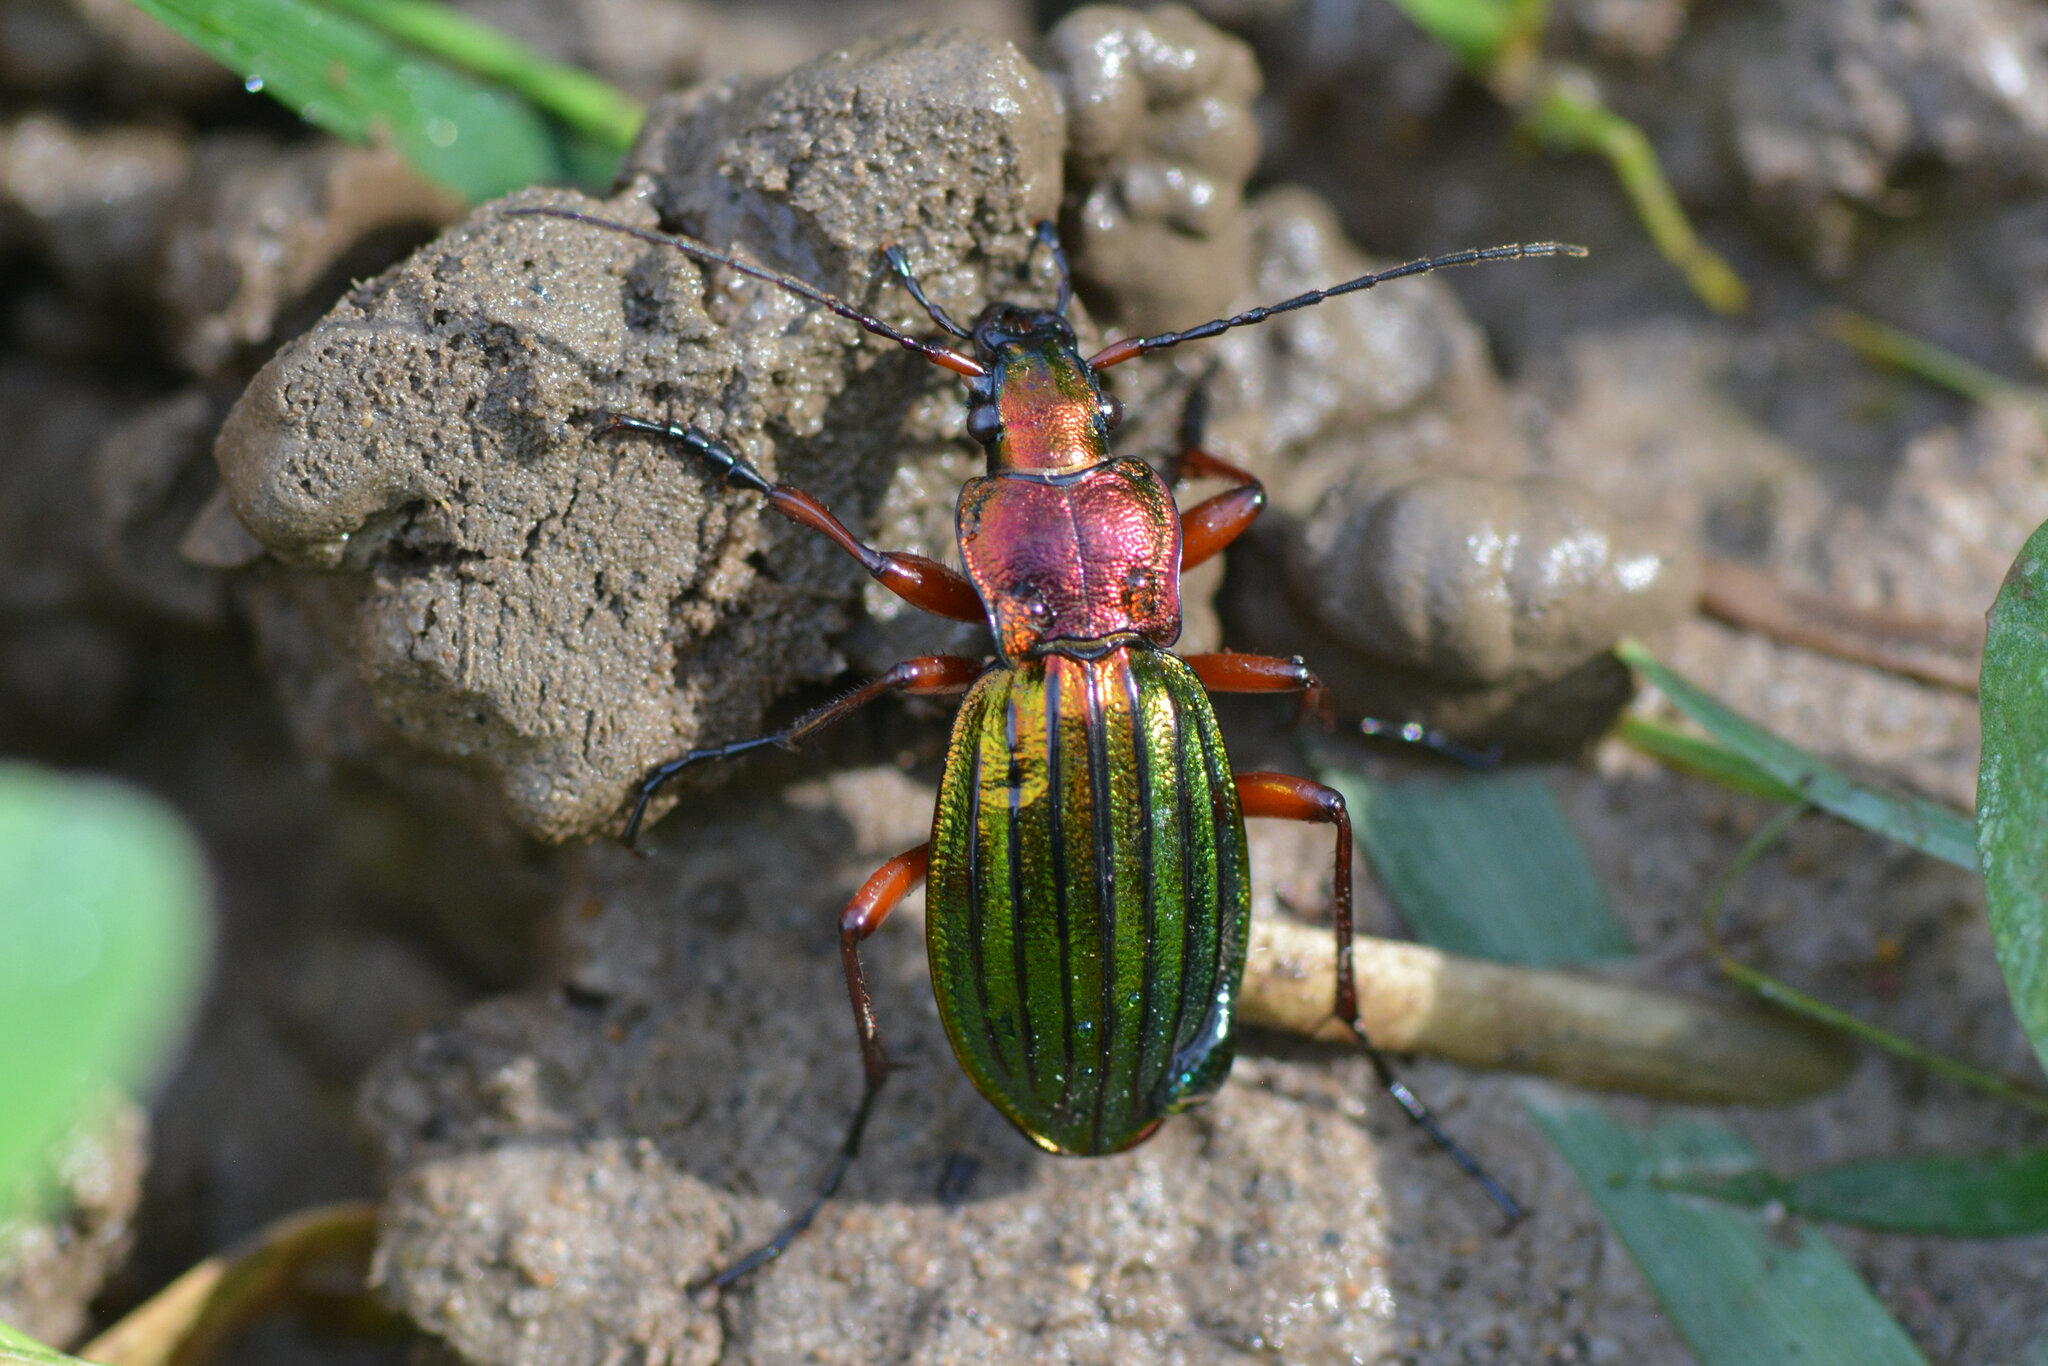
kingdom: Animalia
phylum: Arthropoda
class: Insecta
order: Coleoptera
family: Carabidae
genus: Carabus
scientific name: Carabus auronitens
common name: Carabus auronitens
